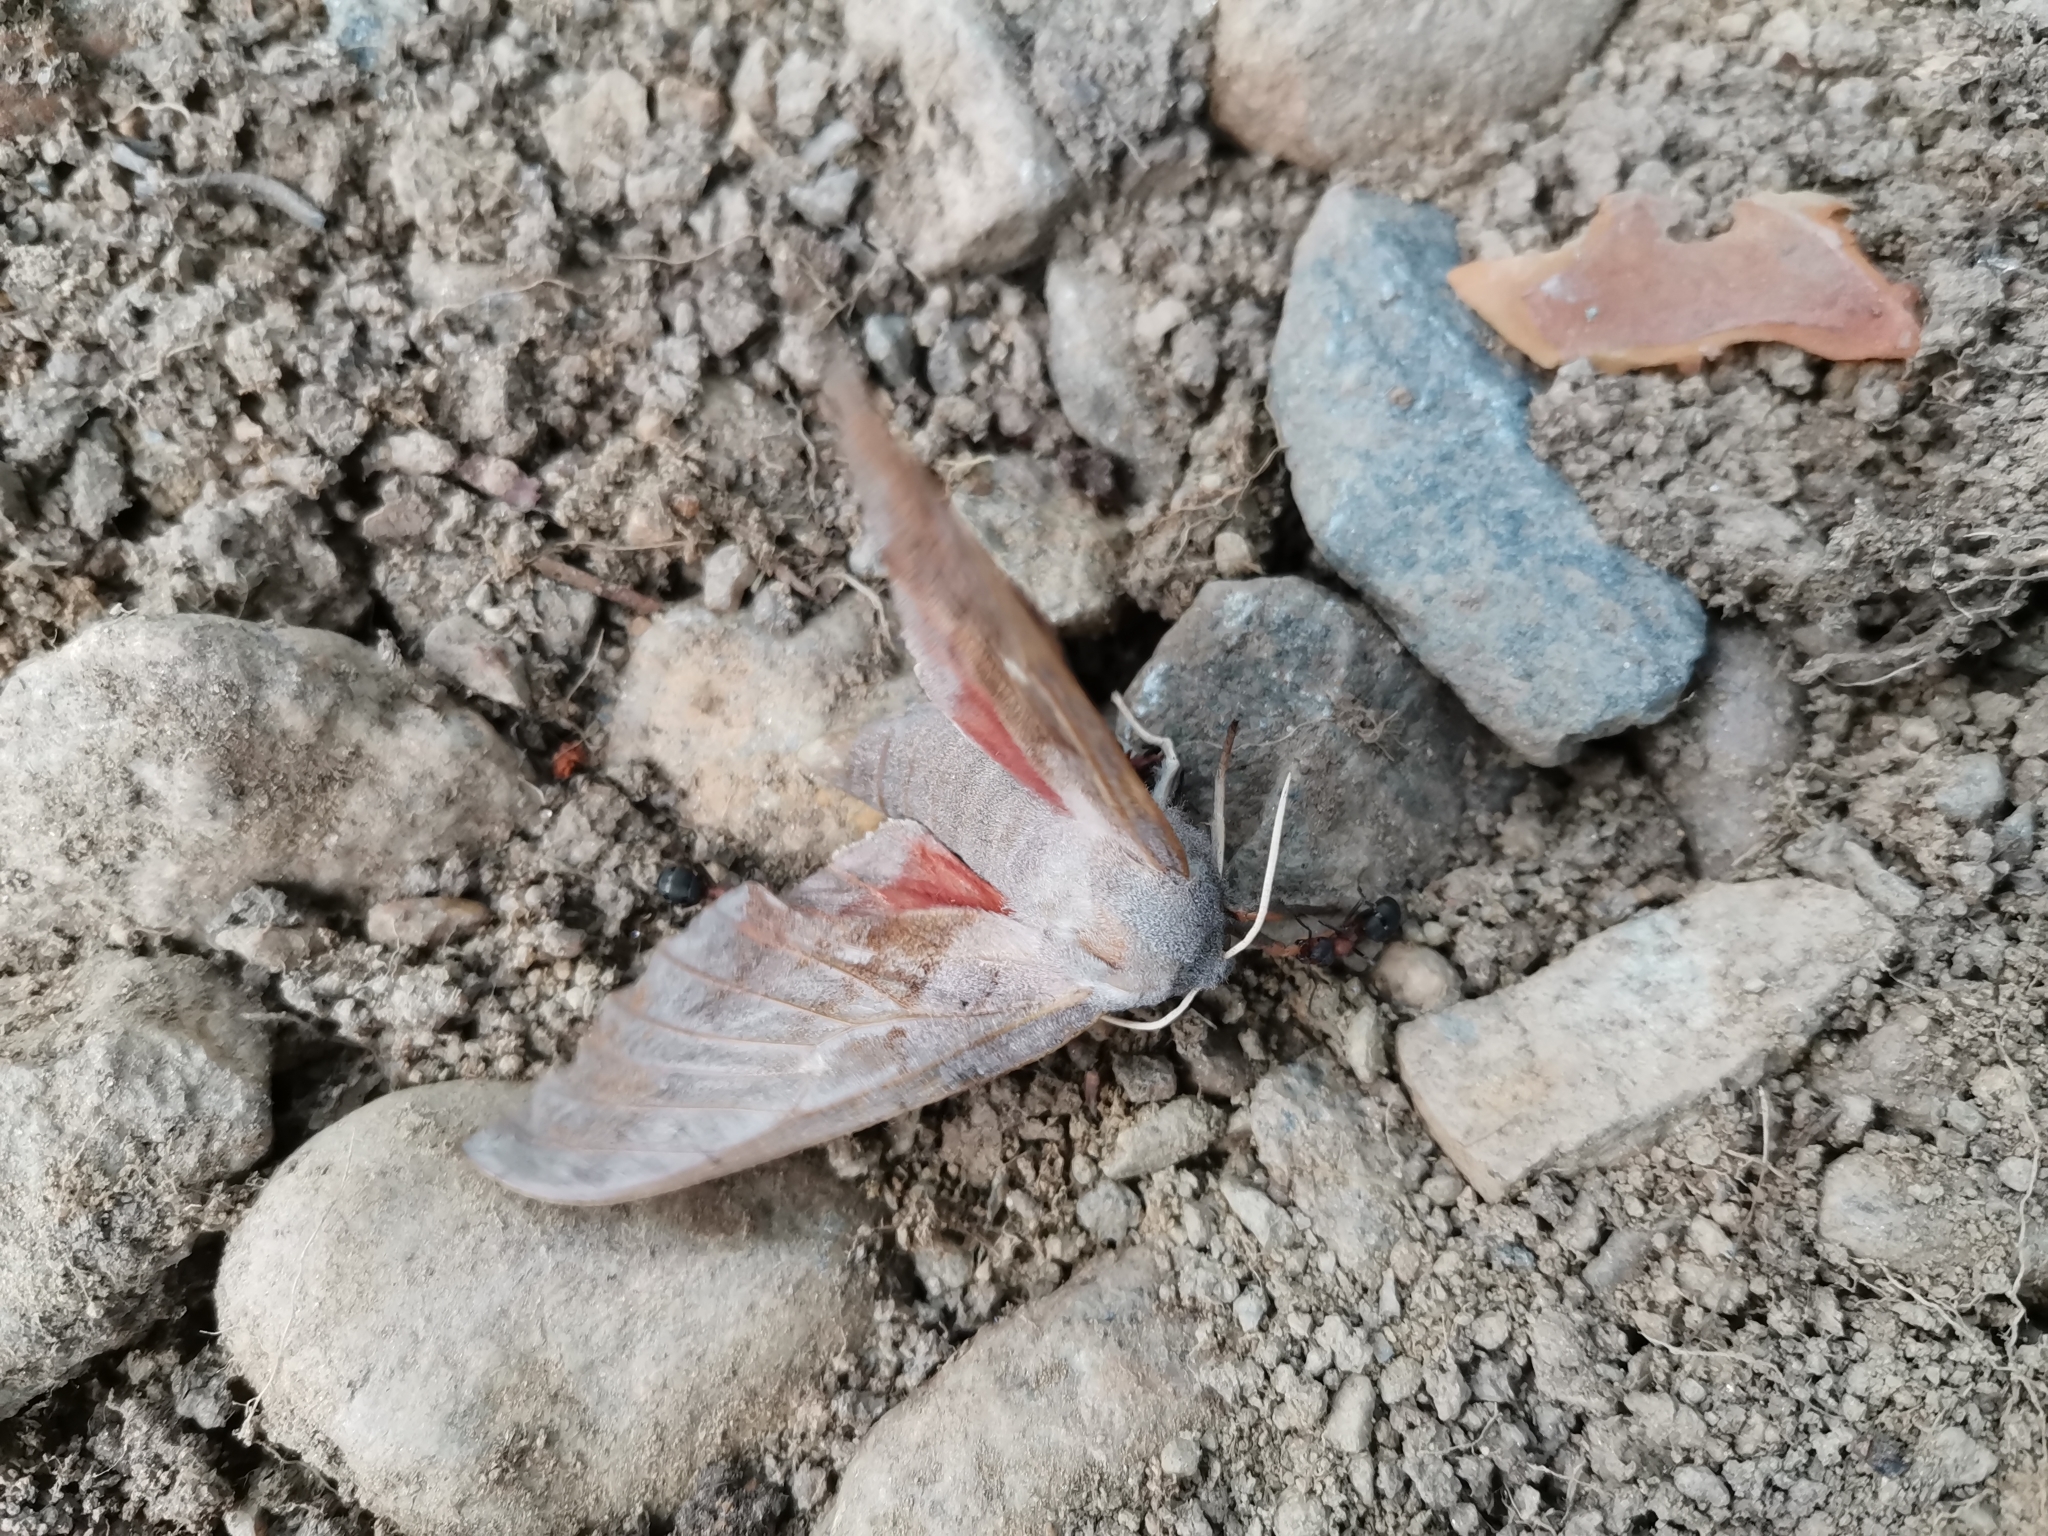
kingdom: Animalia
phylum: Arthropoda
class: Insecta
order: Lepidoptera
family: Sphingidae
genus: Laothoe
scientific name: Laothoe populi
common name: Poplar hawk-moth
